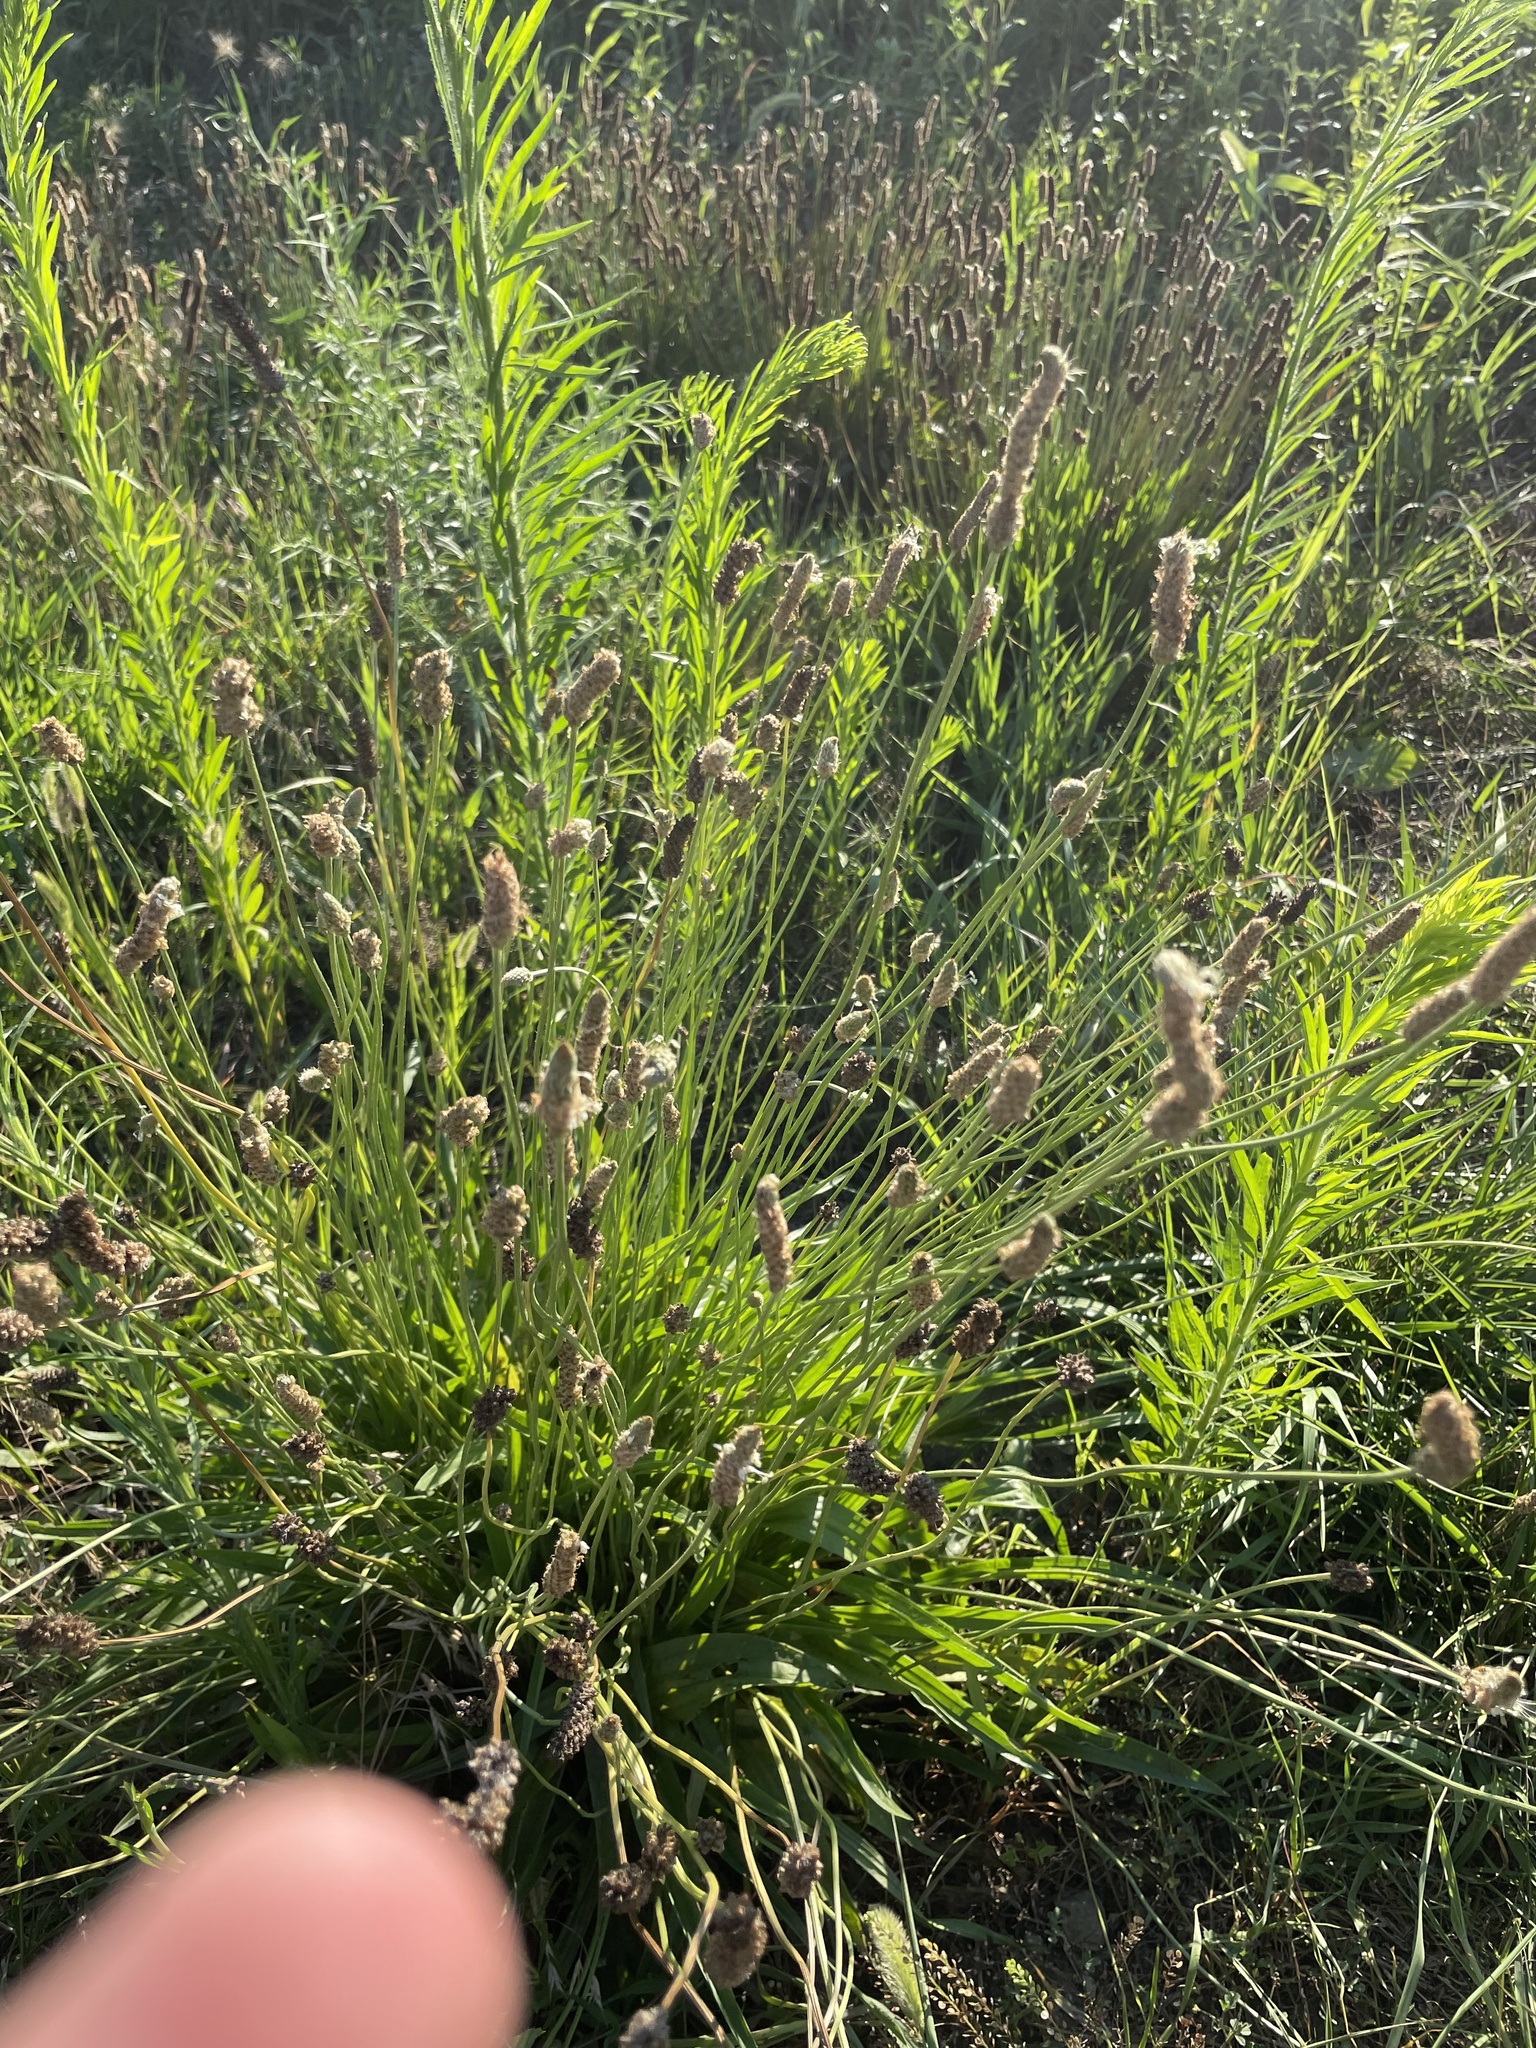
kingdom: Plantae
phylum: Tracheophyta
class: Magnoliopsida
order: Lamiales
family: Plantaginaceae
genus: Plantago
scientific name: Plantago lanceolata
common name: Ribwort plantain
